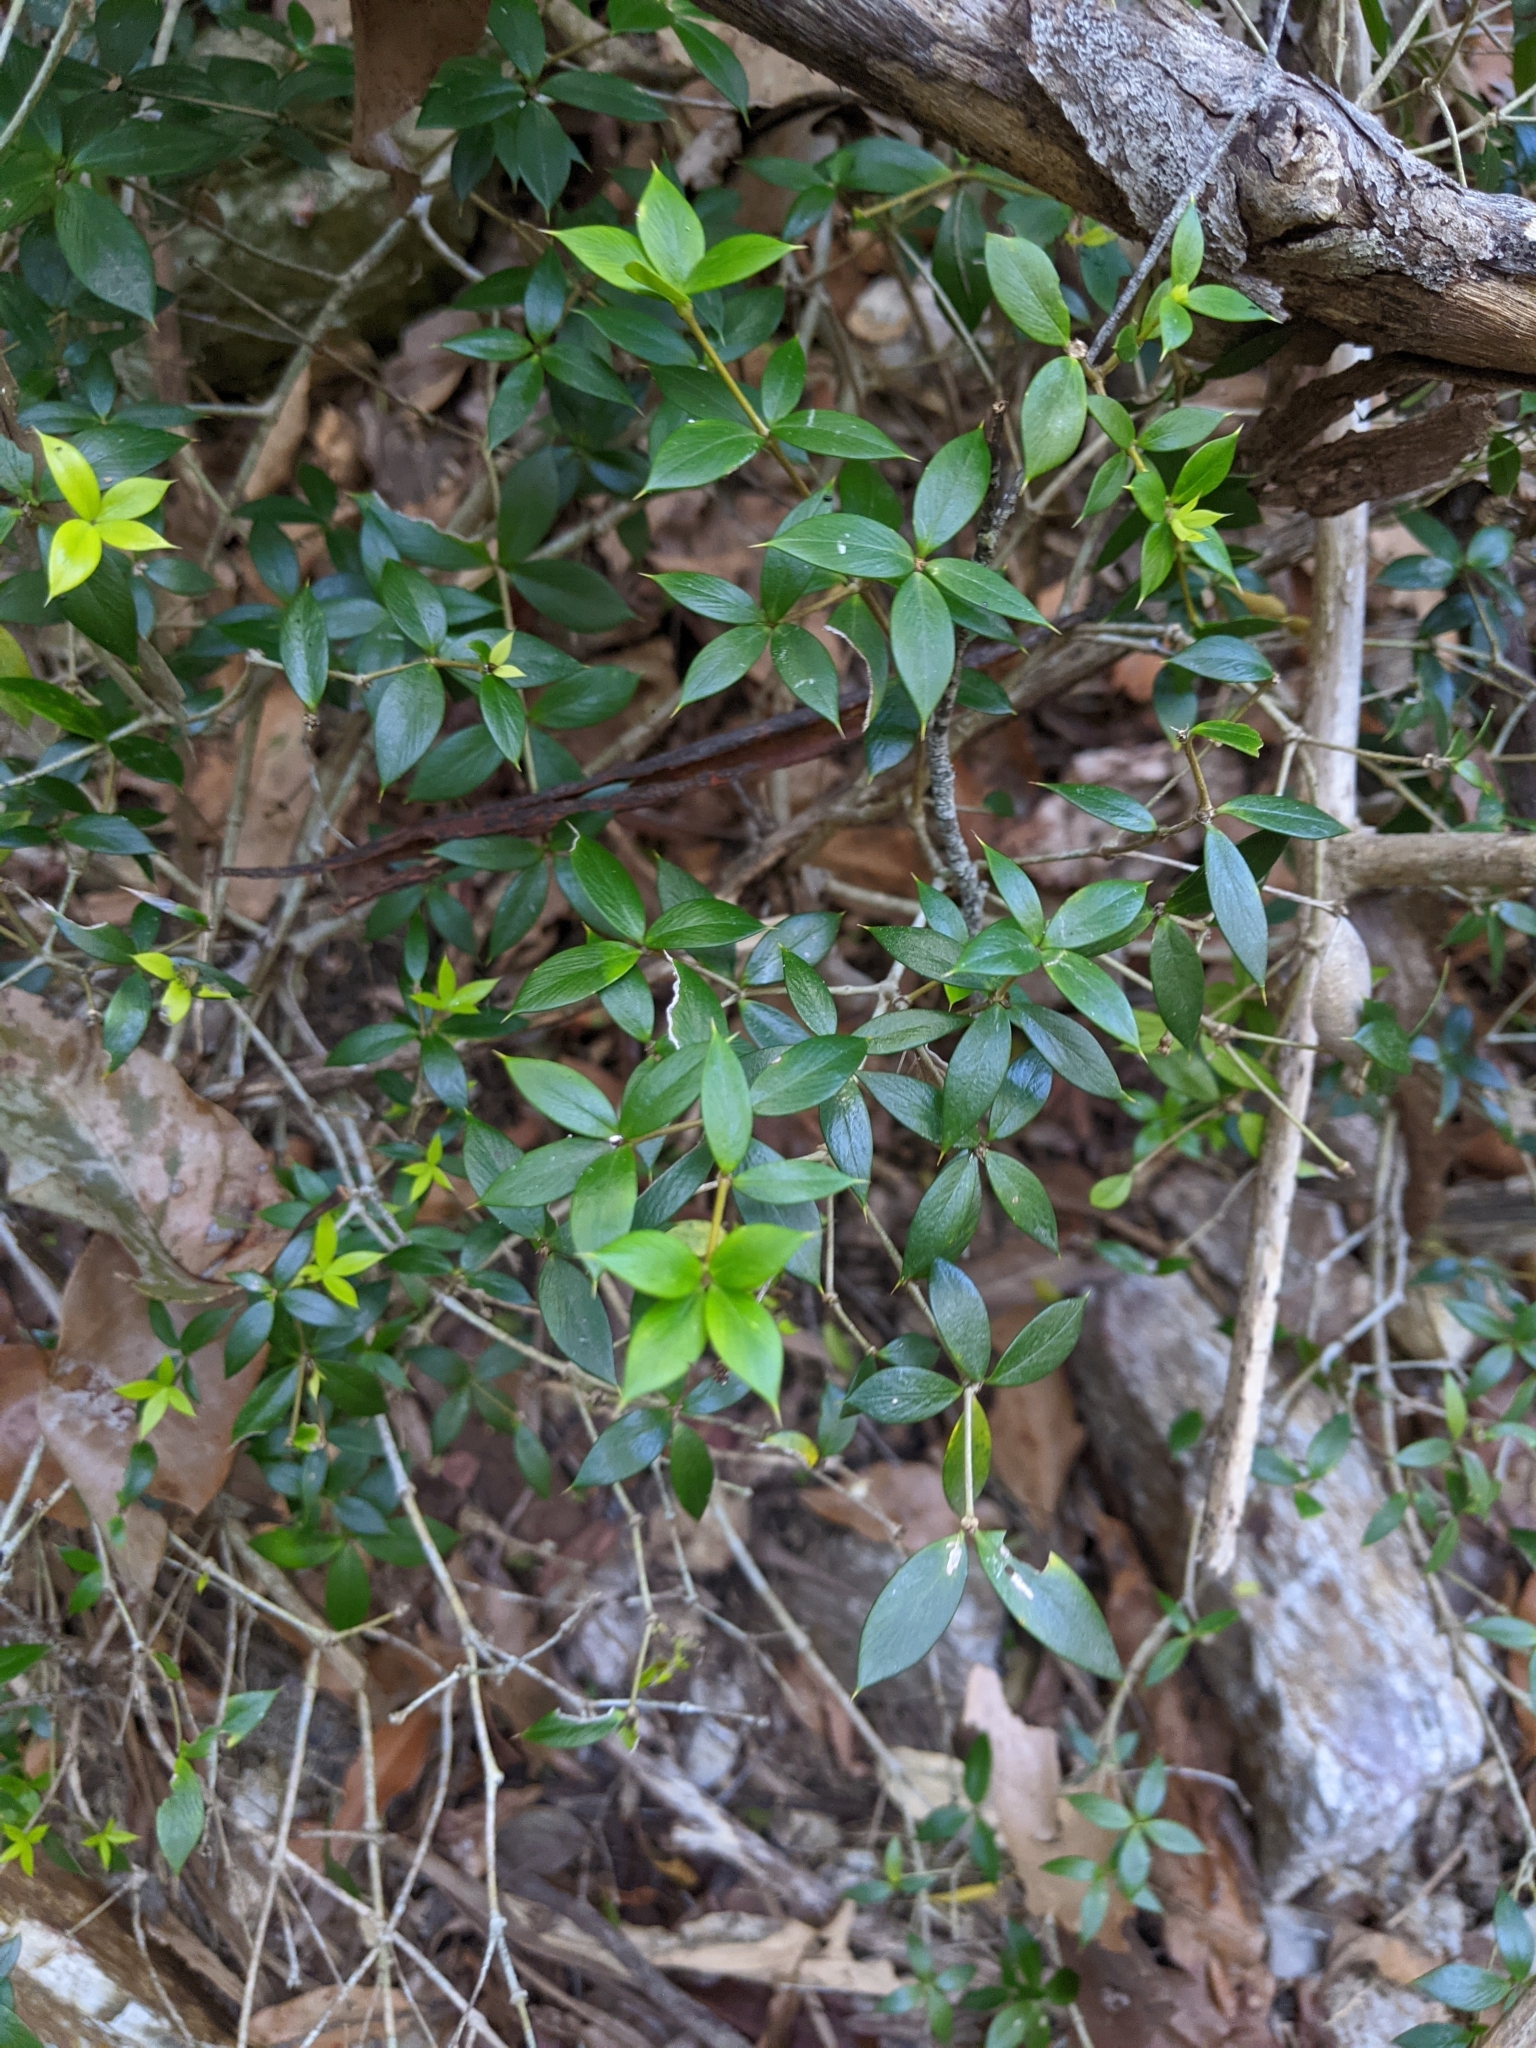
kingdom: Plantae
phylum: Tracheophyta
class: Magnoliopsida
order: Gentianales
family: Apocynaceae
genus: Alyxia
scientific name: Alyxia ruscifolia
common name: Chainfruit
